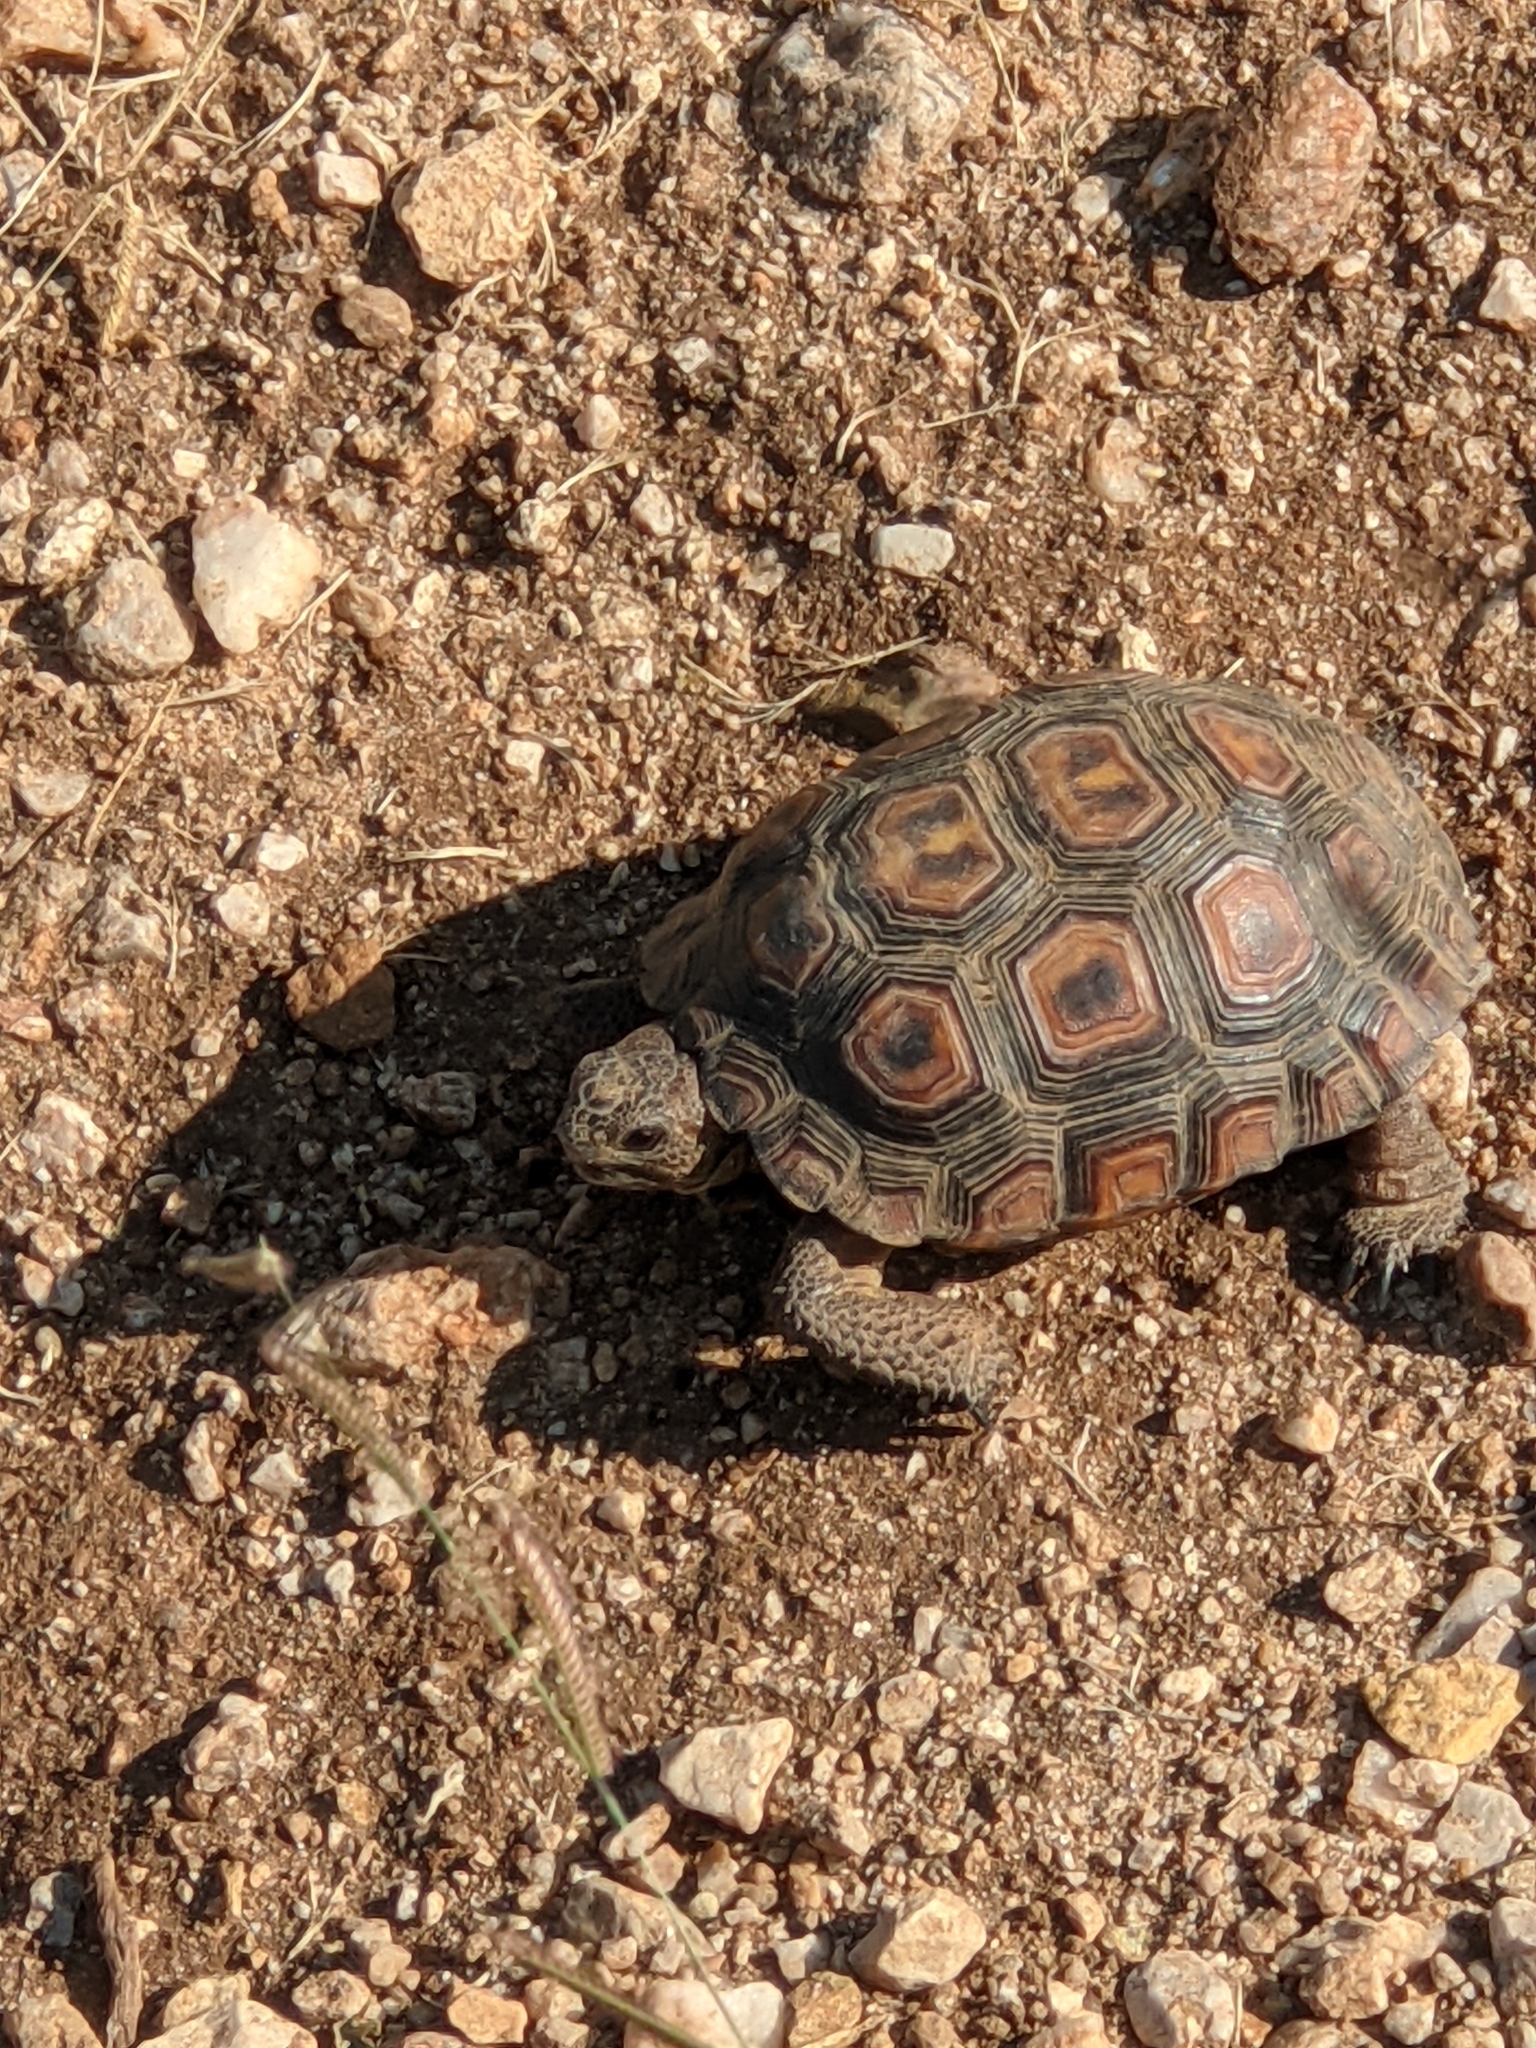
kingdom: Animalia
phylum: Chordata
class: Testudines
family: Testudinidae
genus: Gopherus
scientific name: Gopherus morafkai
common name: Sonoran desert tortoise
